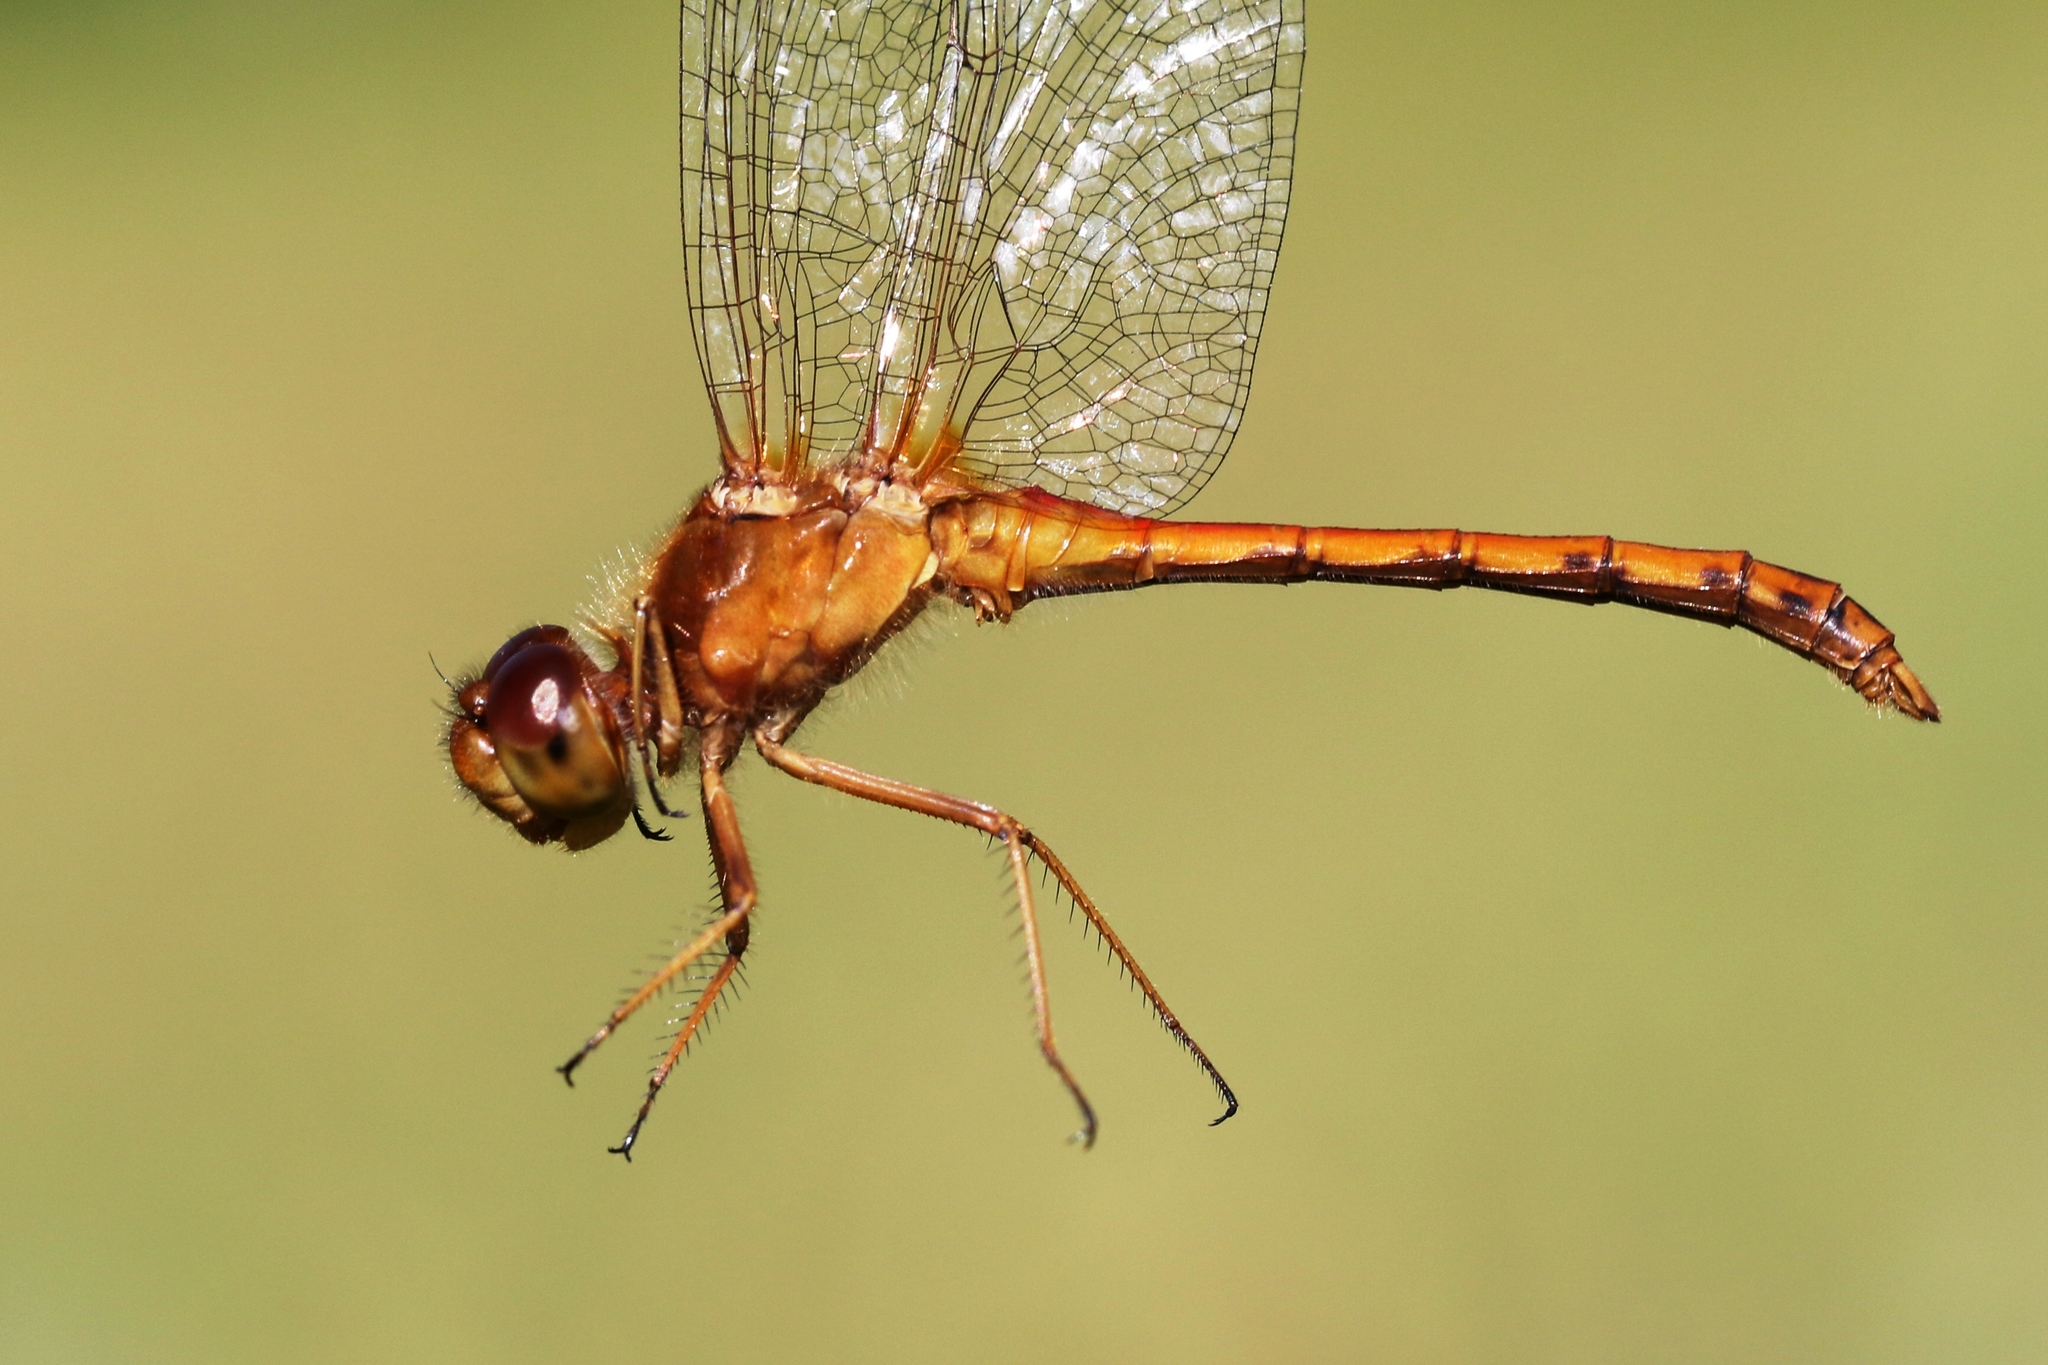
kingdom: Animalia
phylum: Arthropoda
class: Insecta
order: Odonata
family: Libellulidae
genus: Sympetrum
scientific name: Sympetrum vicinum
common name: Autumn meadowhawk
